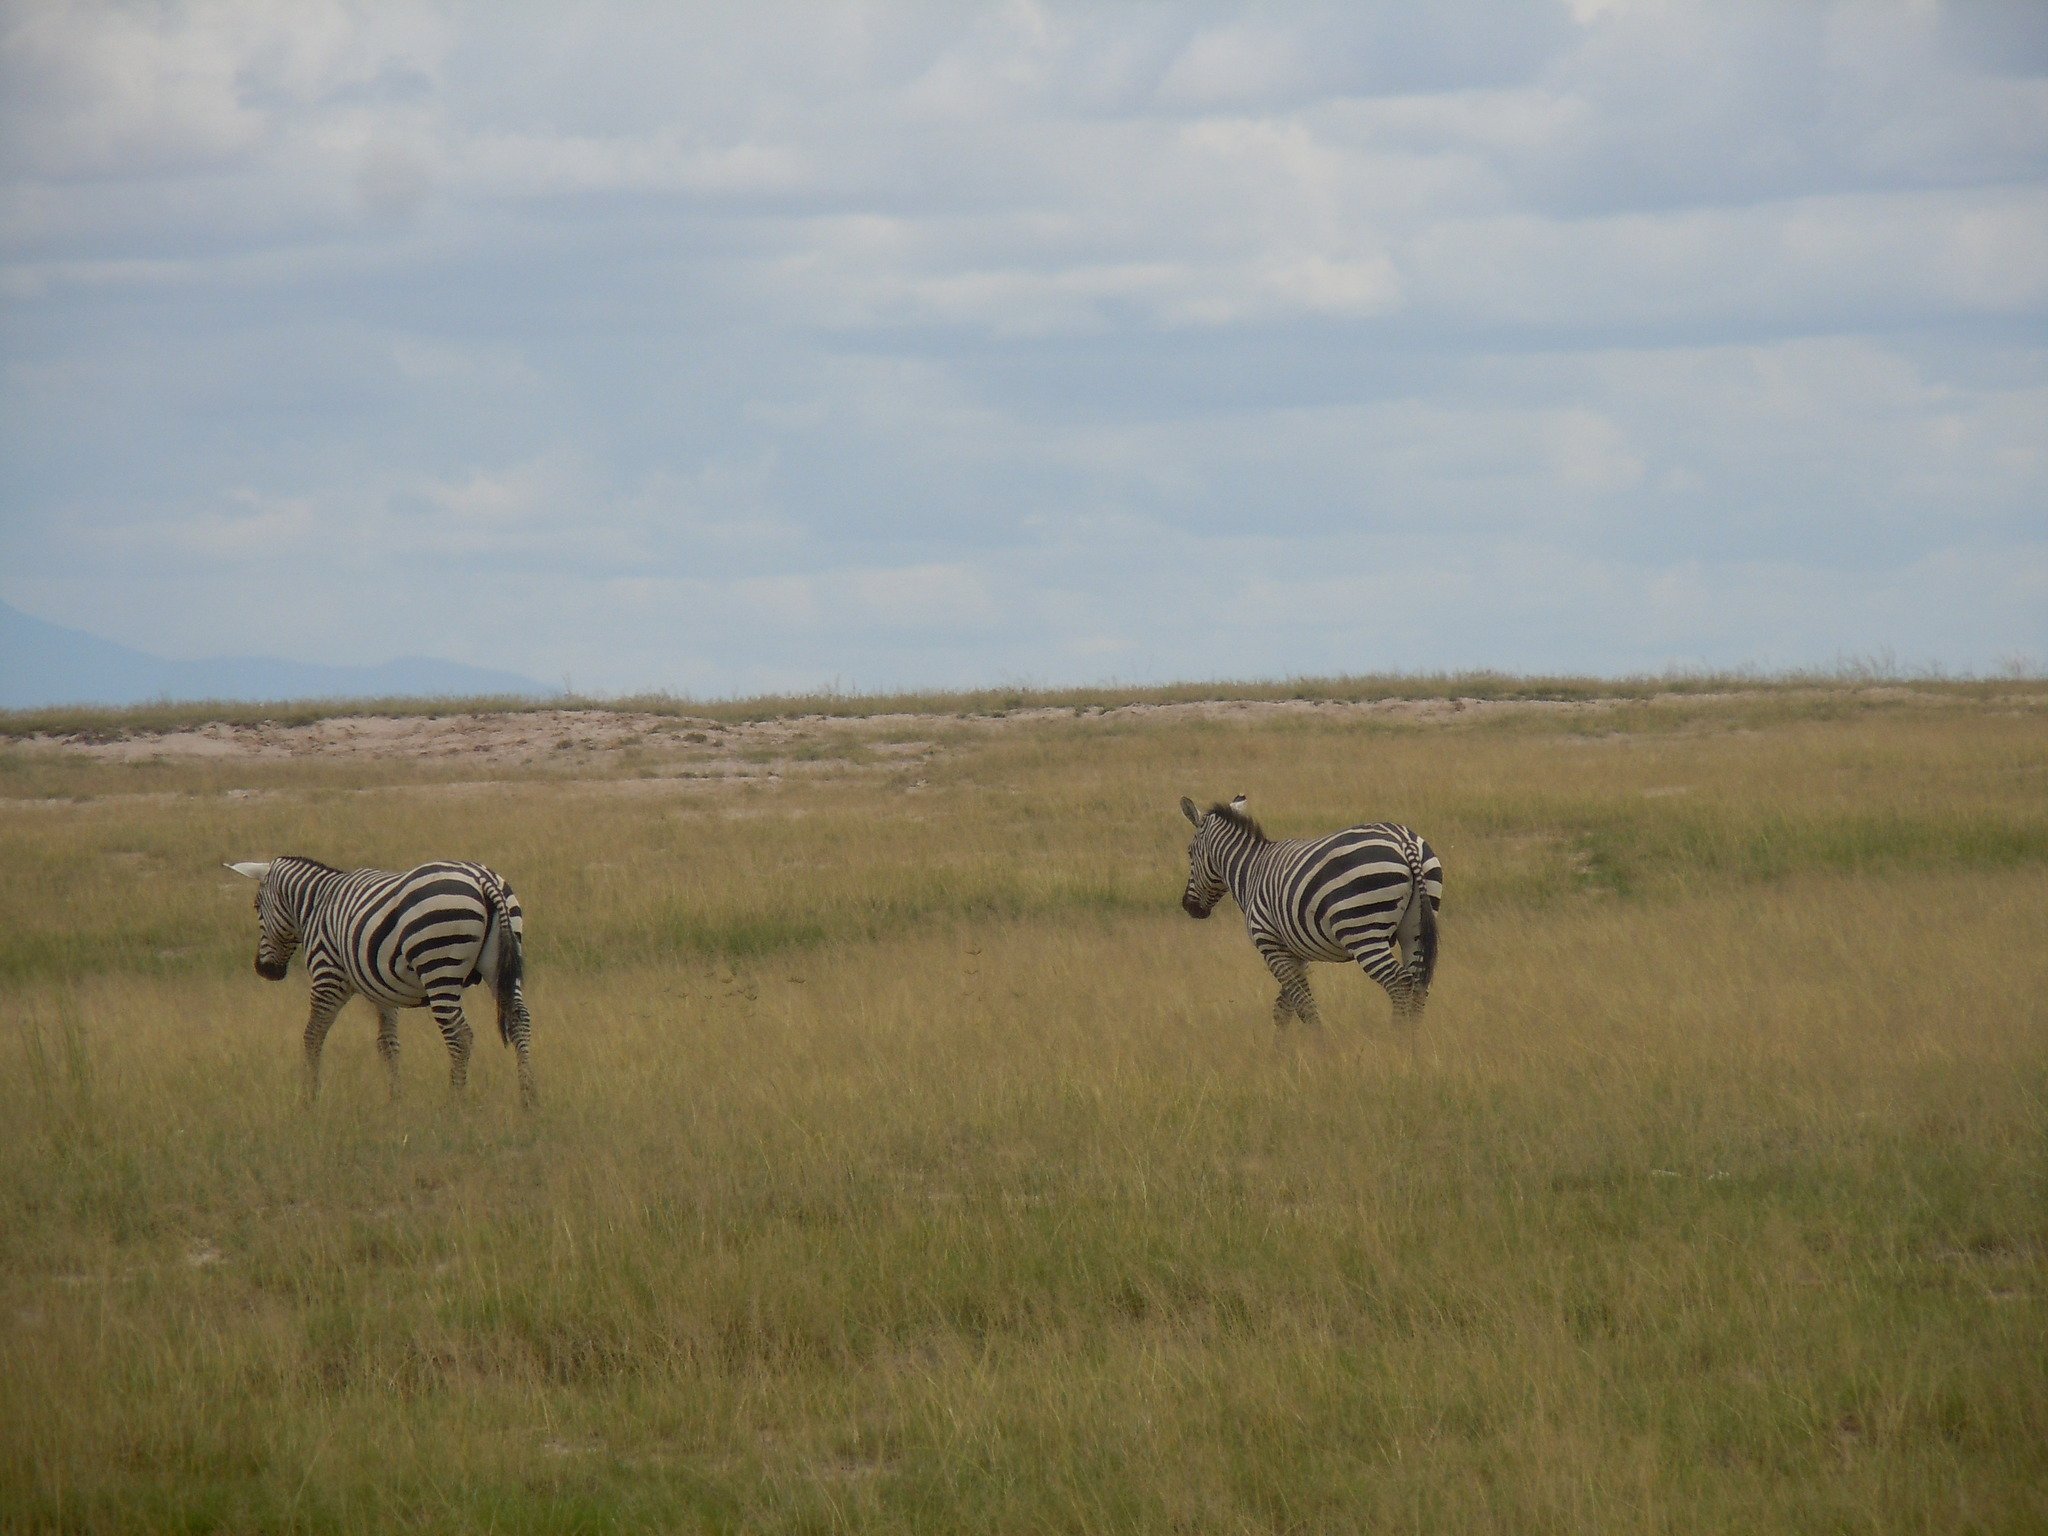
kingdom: Animalia
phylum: Chordata
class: Mammalia
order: Perissodactyla
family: Equidae
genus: Equus
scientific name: Equus quagga
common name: Plains zebra
